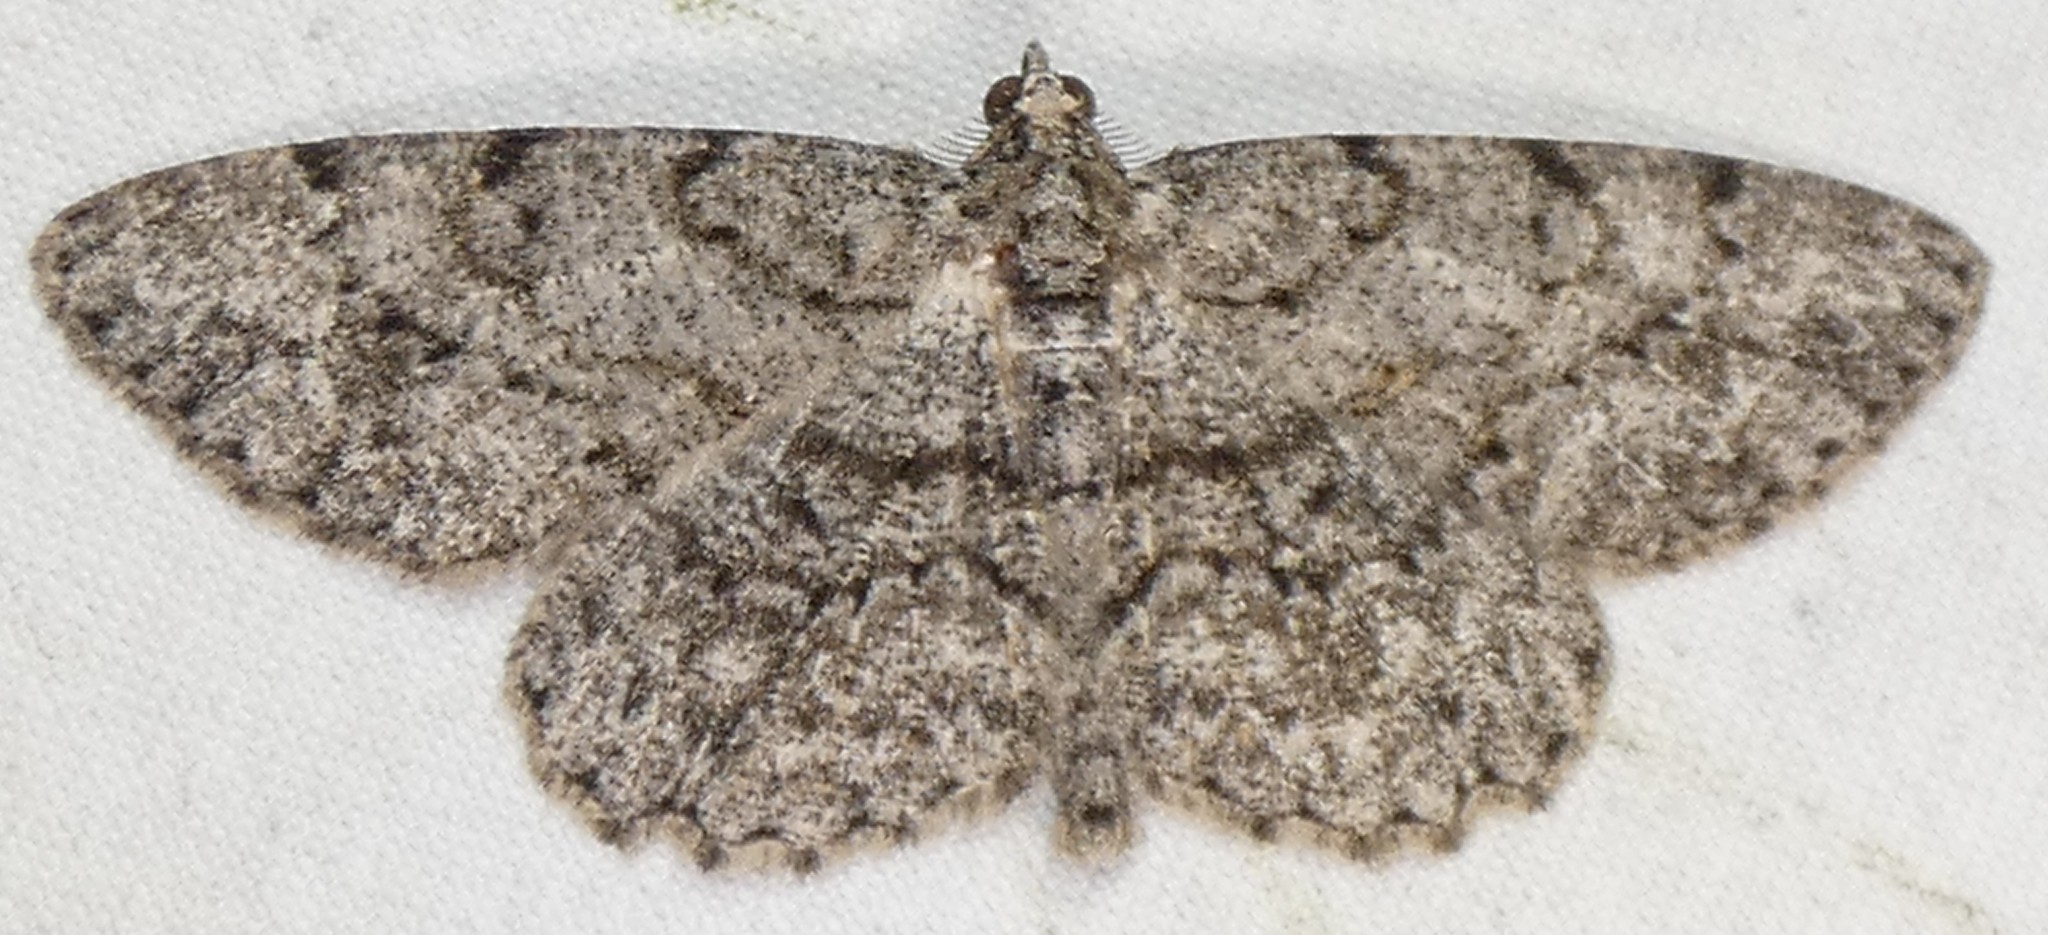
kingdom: Animalia
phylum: Arthropoda
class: Insecta
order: Lepidoptera
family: Geometridae
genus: Protoboarmia
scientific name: Protoboarmia porcelaria
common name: Porcelain gray
